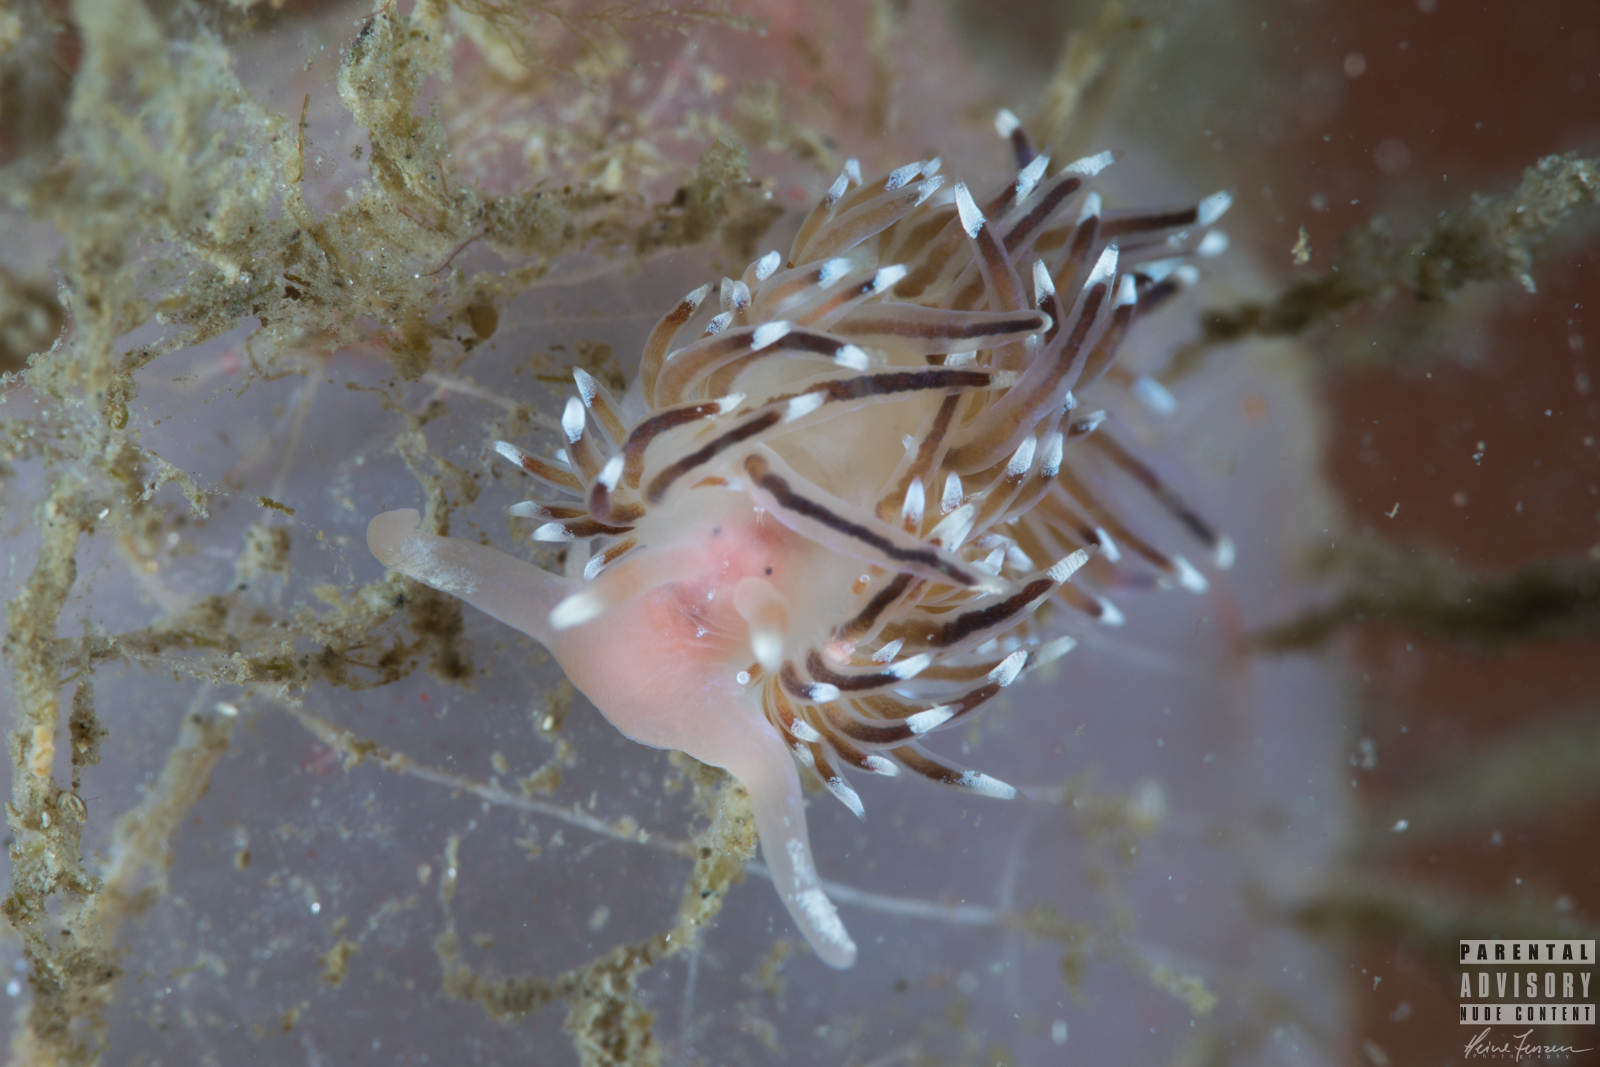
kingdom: Animalia
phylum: Mollusca
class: Gastropoda
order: Nudibranchia
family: Facelinidae
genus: Facelina
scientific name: Facelina bostoniensis
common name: Boston facelina
